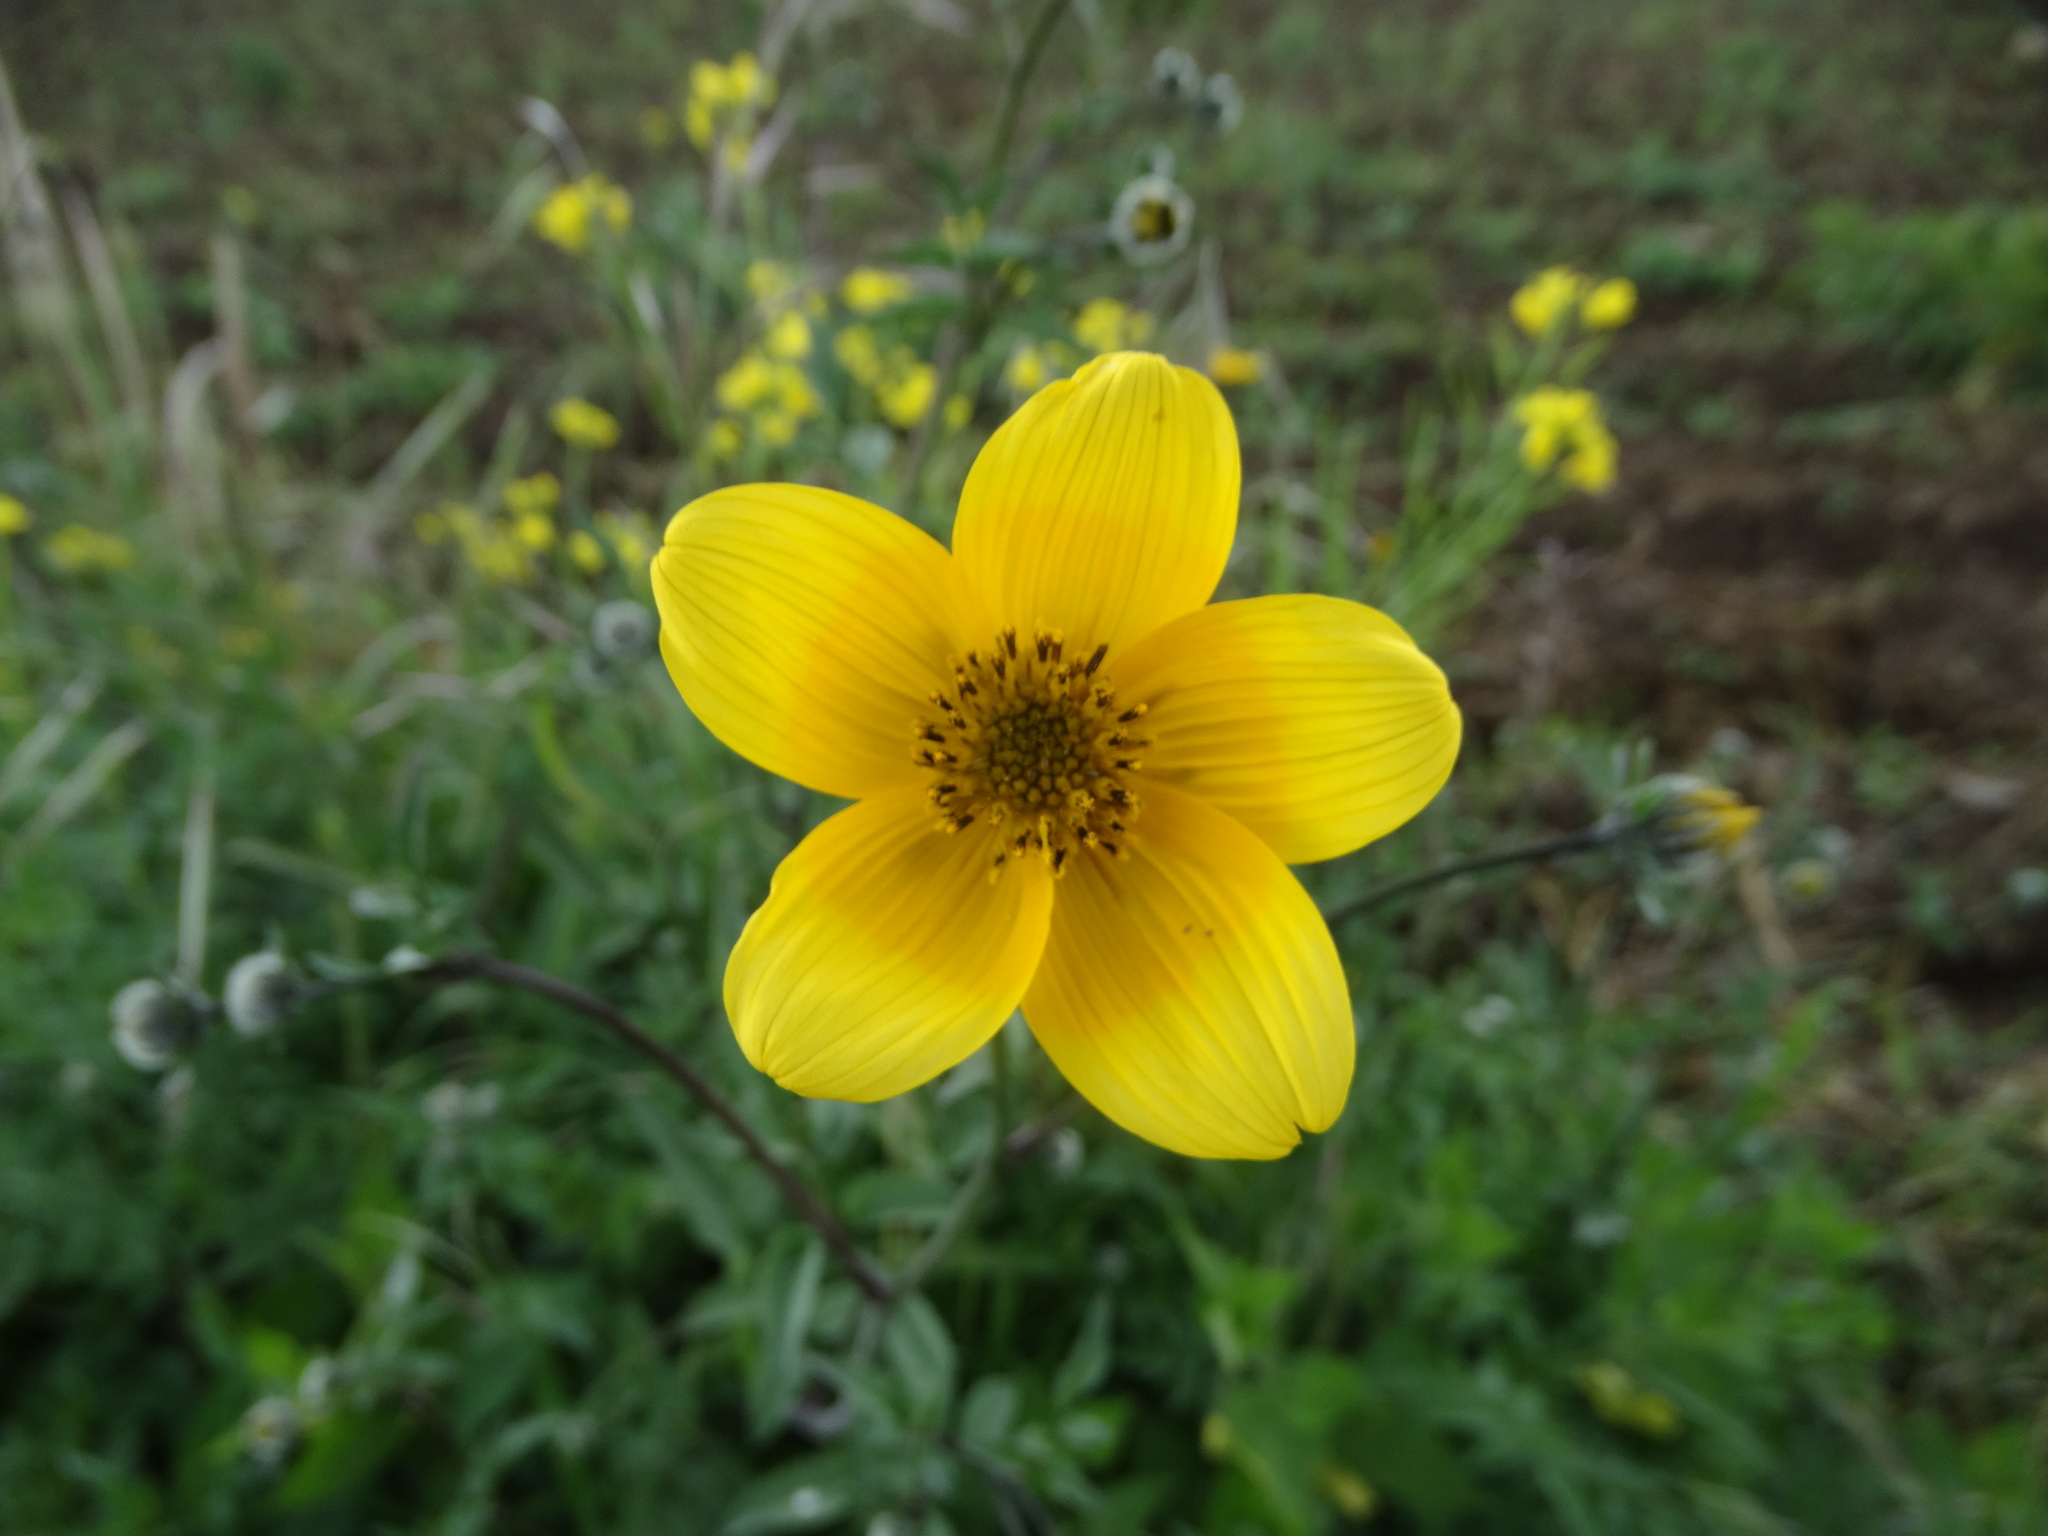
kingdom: Plantae
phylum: Tracheophyta
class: Magnoliopsida
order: Asterales
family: Asteraceae
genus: Bidens
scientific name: Bidens serrulata
